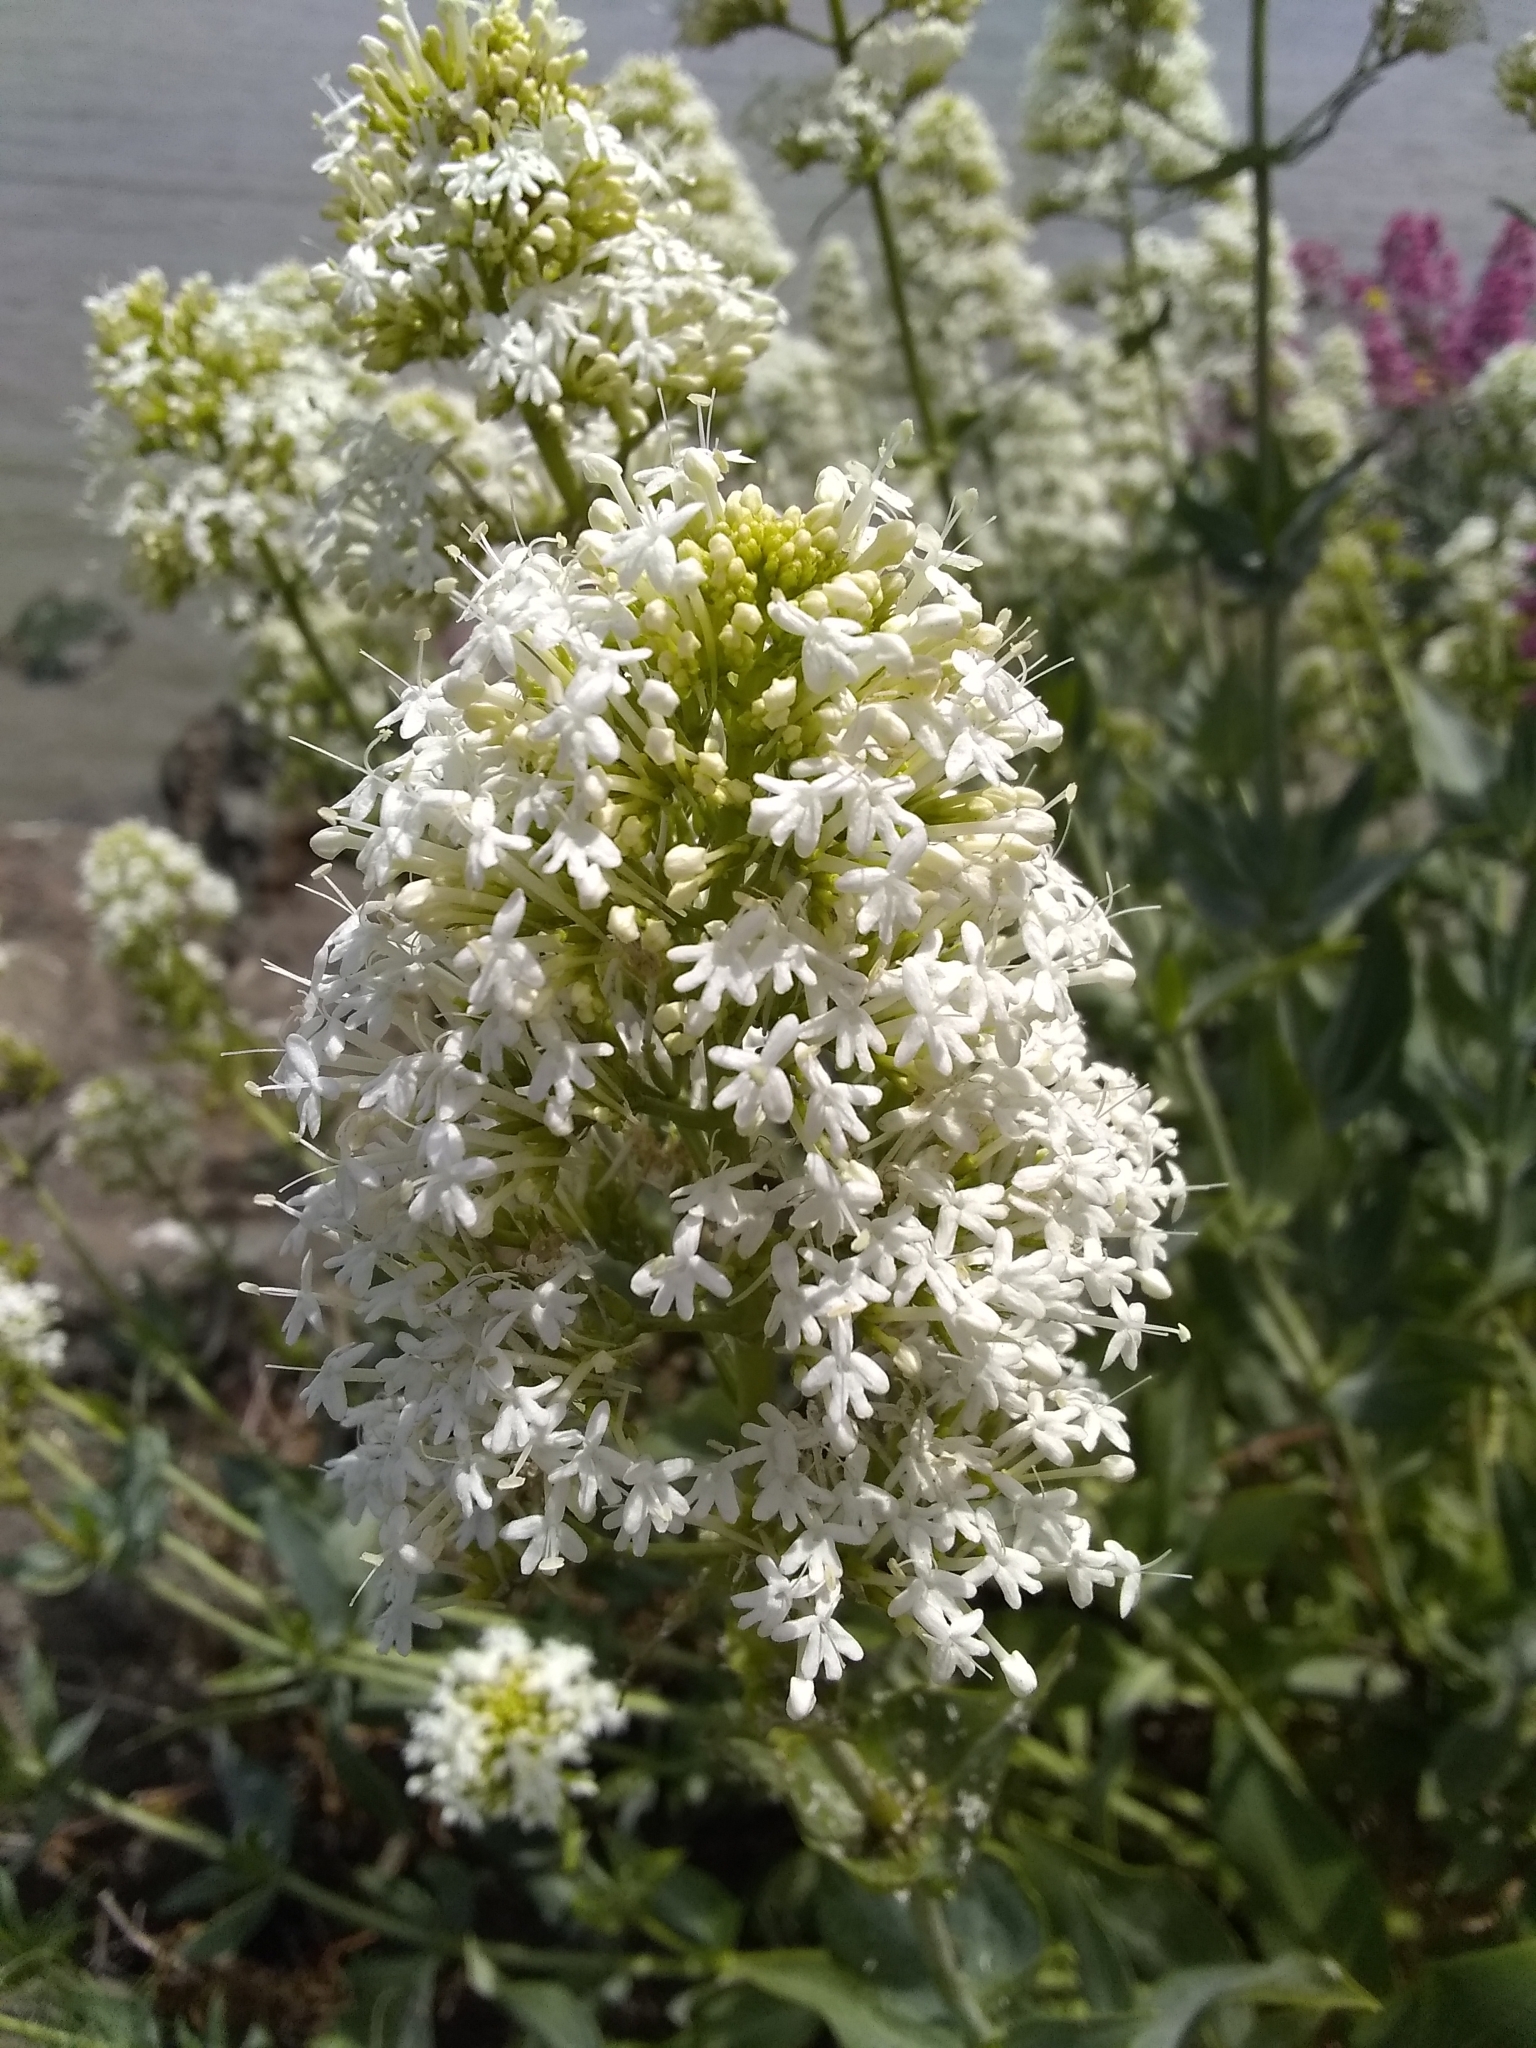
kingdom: Plantae
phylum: Tracheophyta
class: Magnoliopsida
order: Dipsacales
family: Caprifoliaceae
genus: Centranthus
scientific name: Centranthus ruber
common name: Red valerian
